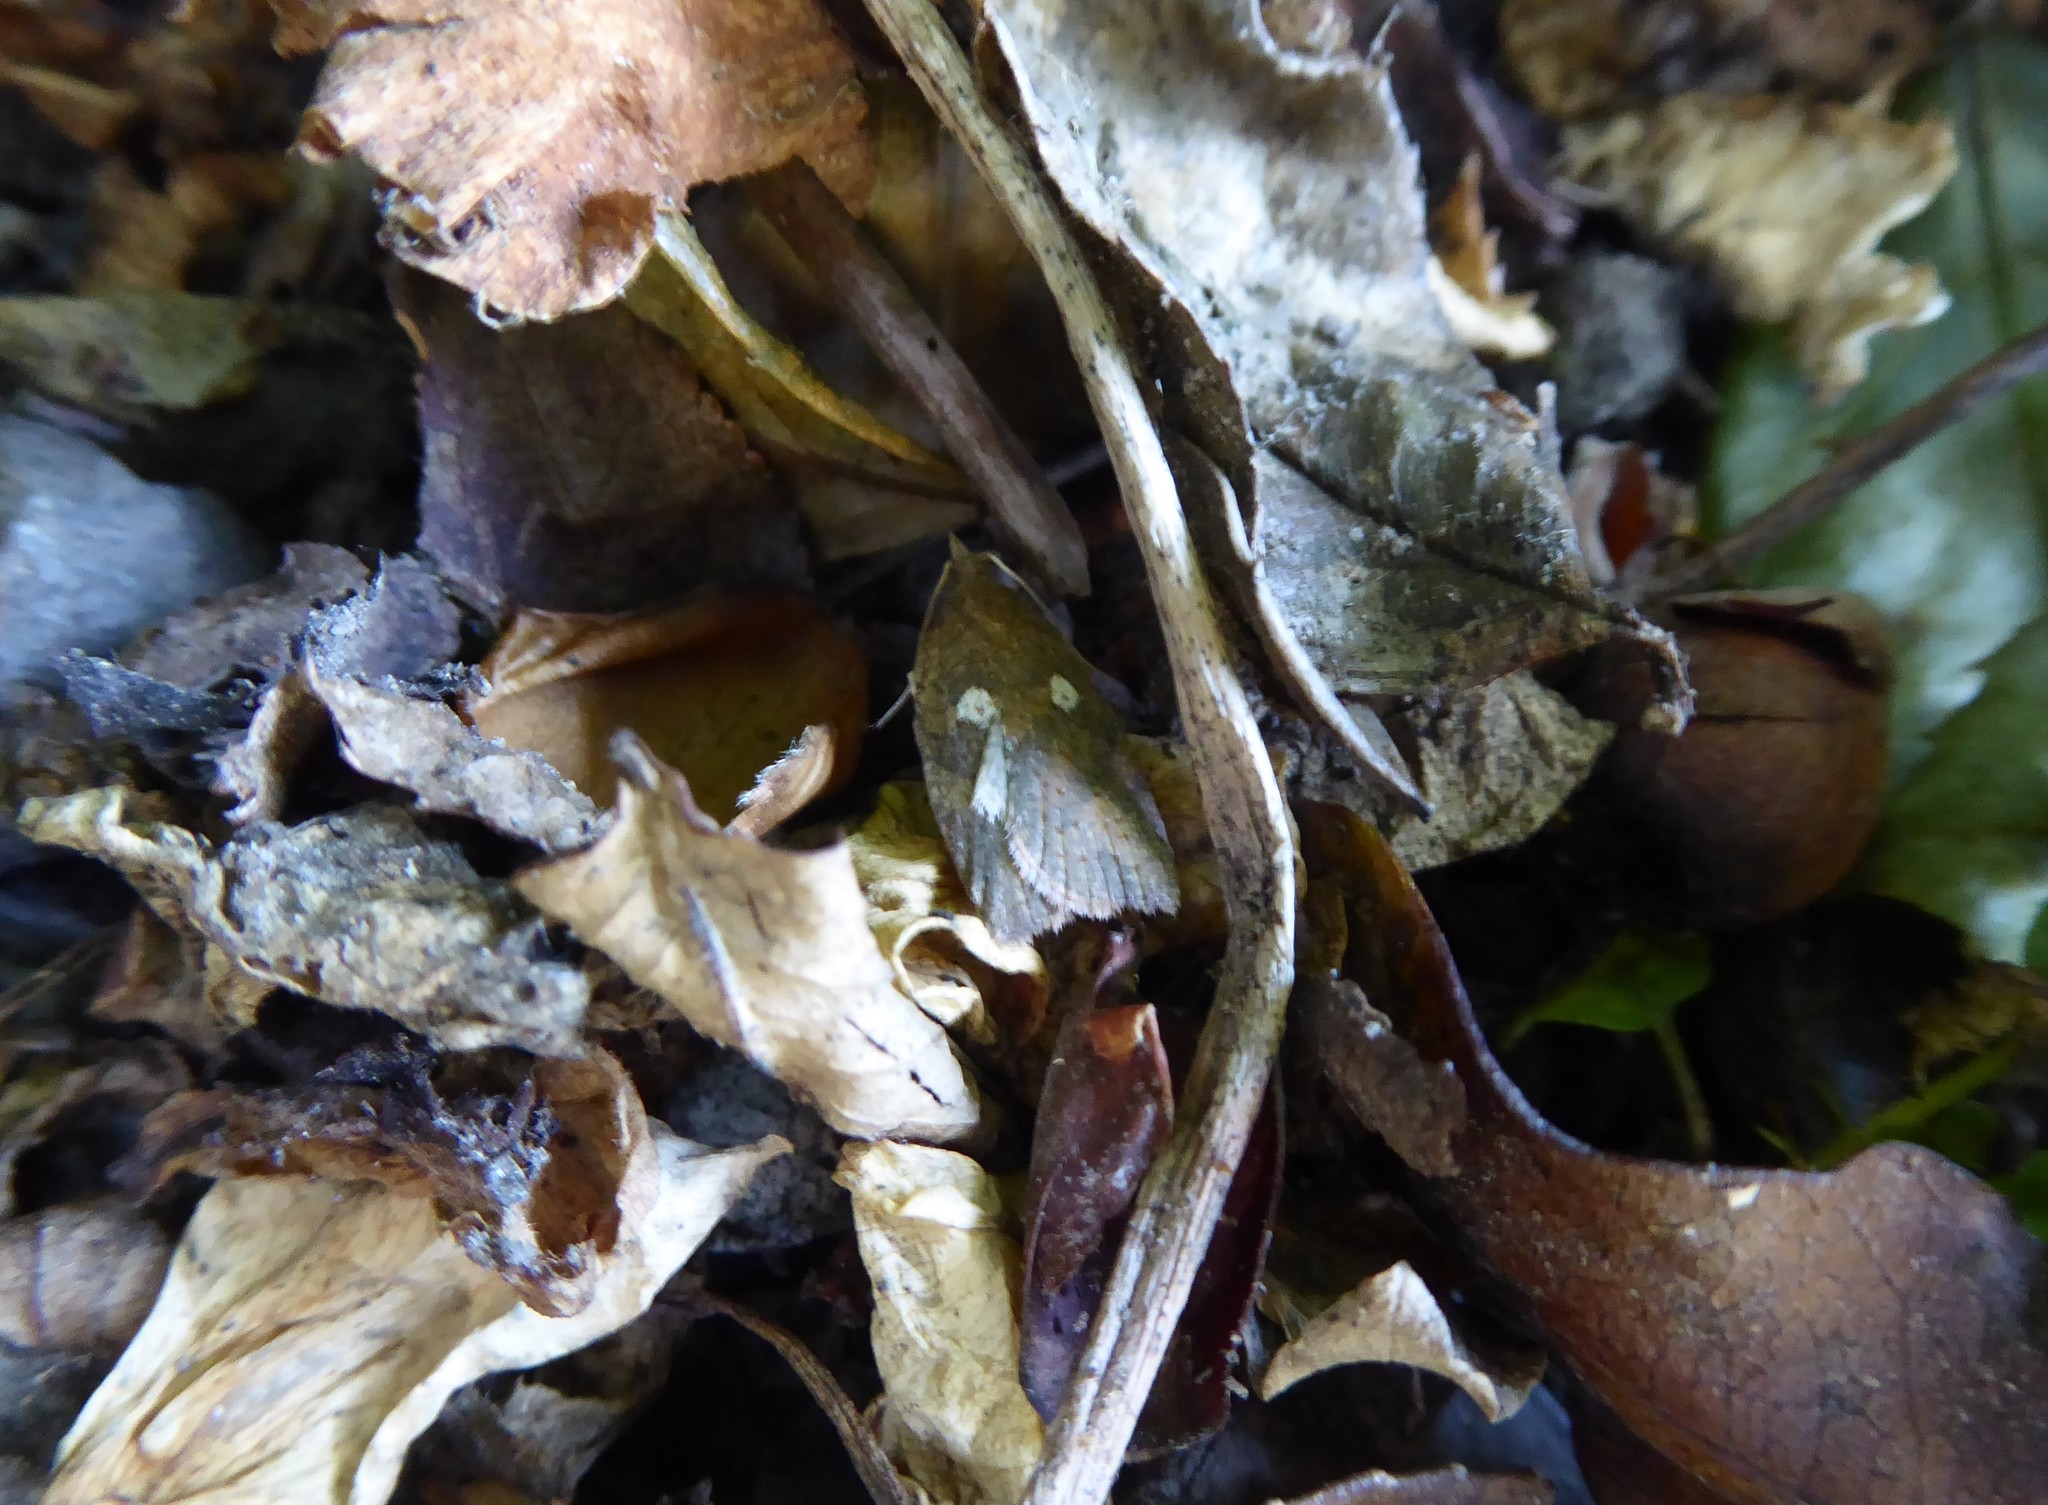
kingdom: Animalia
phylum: Arthropoda
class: Insecta
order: Lepidoptera
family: Tortricidae
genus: Planotortrix
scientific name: Planotortrix excessana
